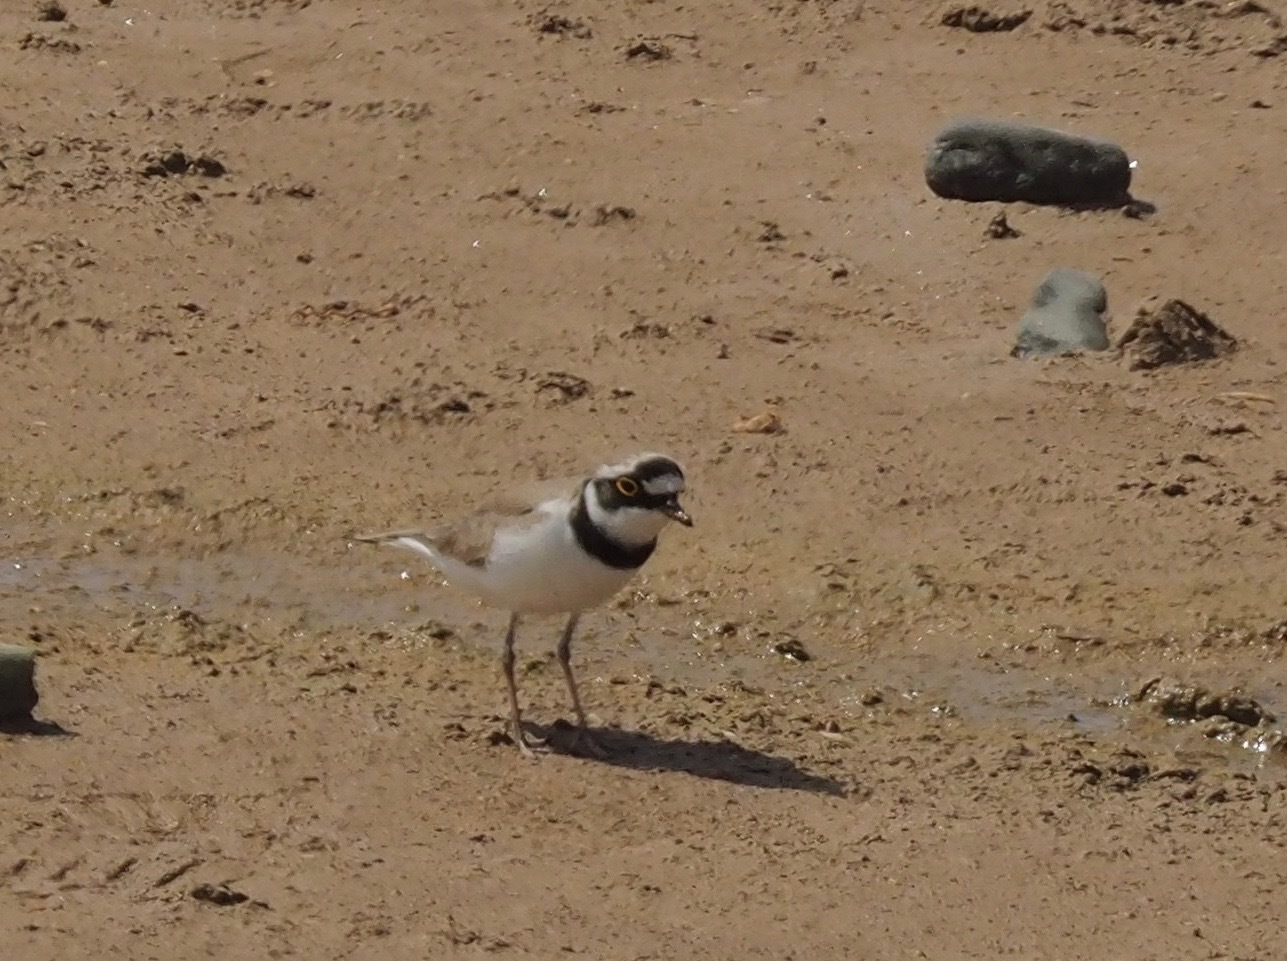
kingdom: Animalia
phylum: Chordata
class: Aves
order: Charadriiformes
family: Charadriidae
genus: Charadrius
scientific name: Charadrius dubius
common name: Little ringed plover
